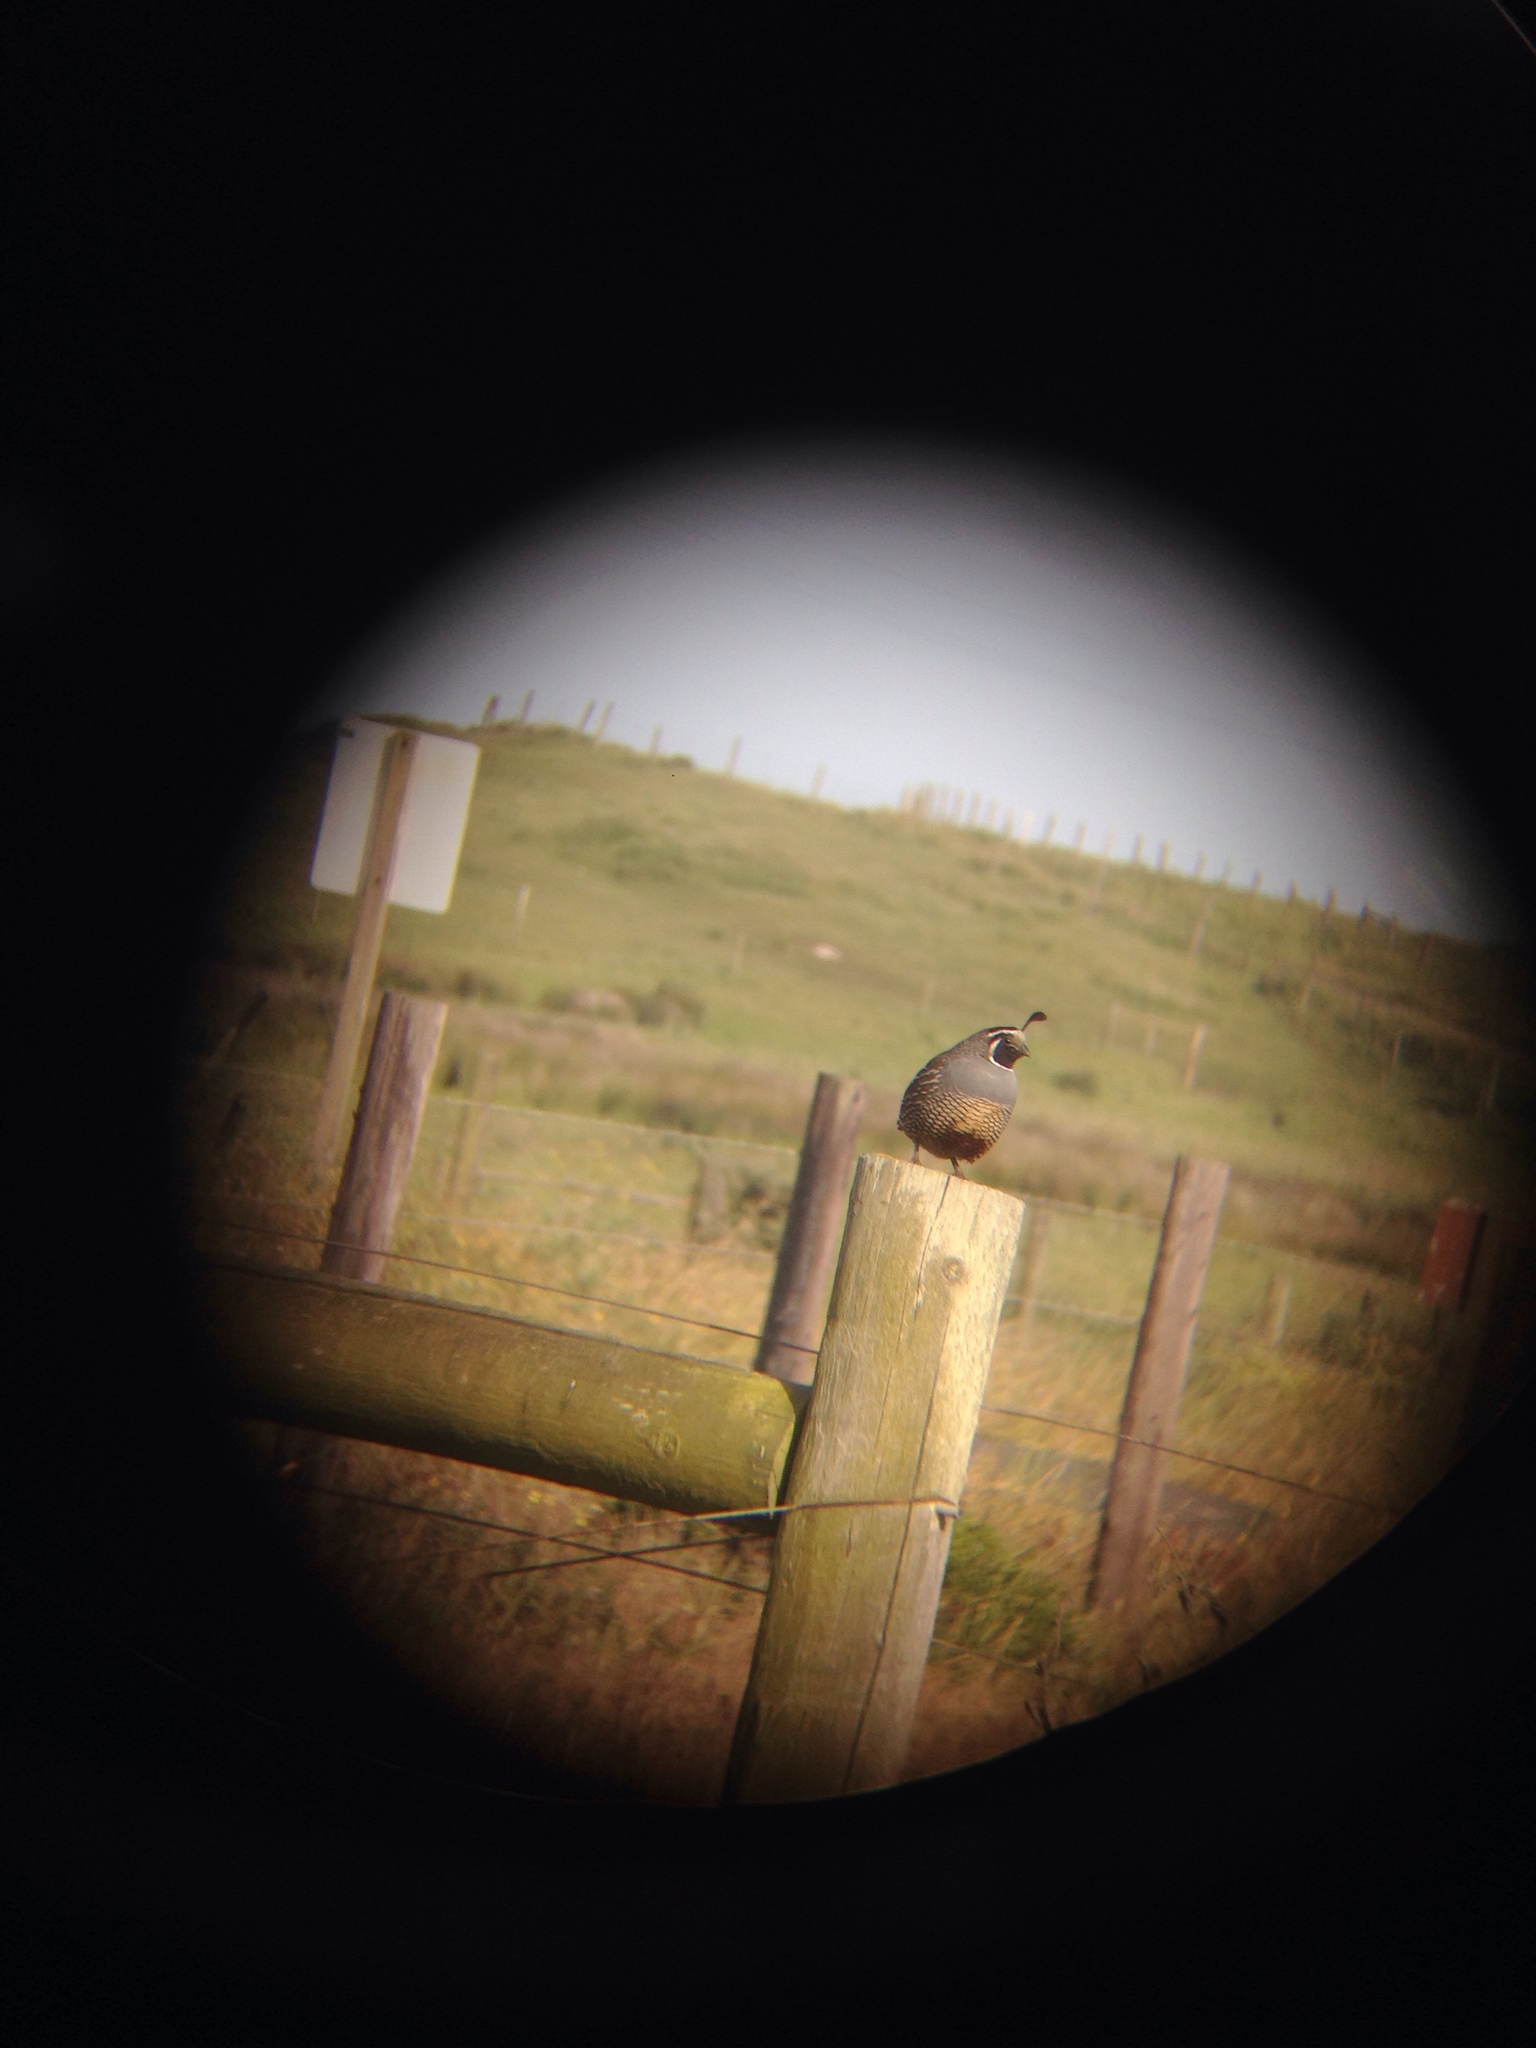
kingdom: Animalia
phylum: Chordata
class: Aves
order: Galliformes
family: Odontophoridae
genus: Callipepla
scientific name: Callipepla californica
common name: California quail
